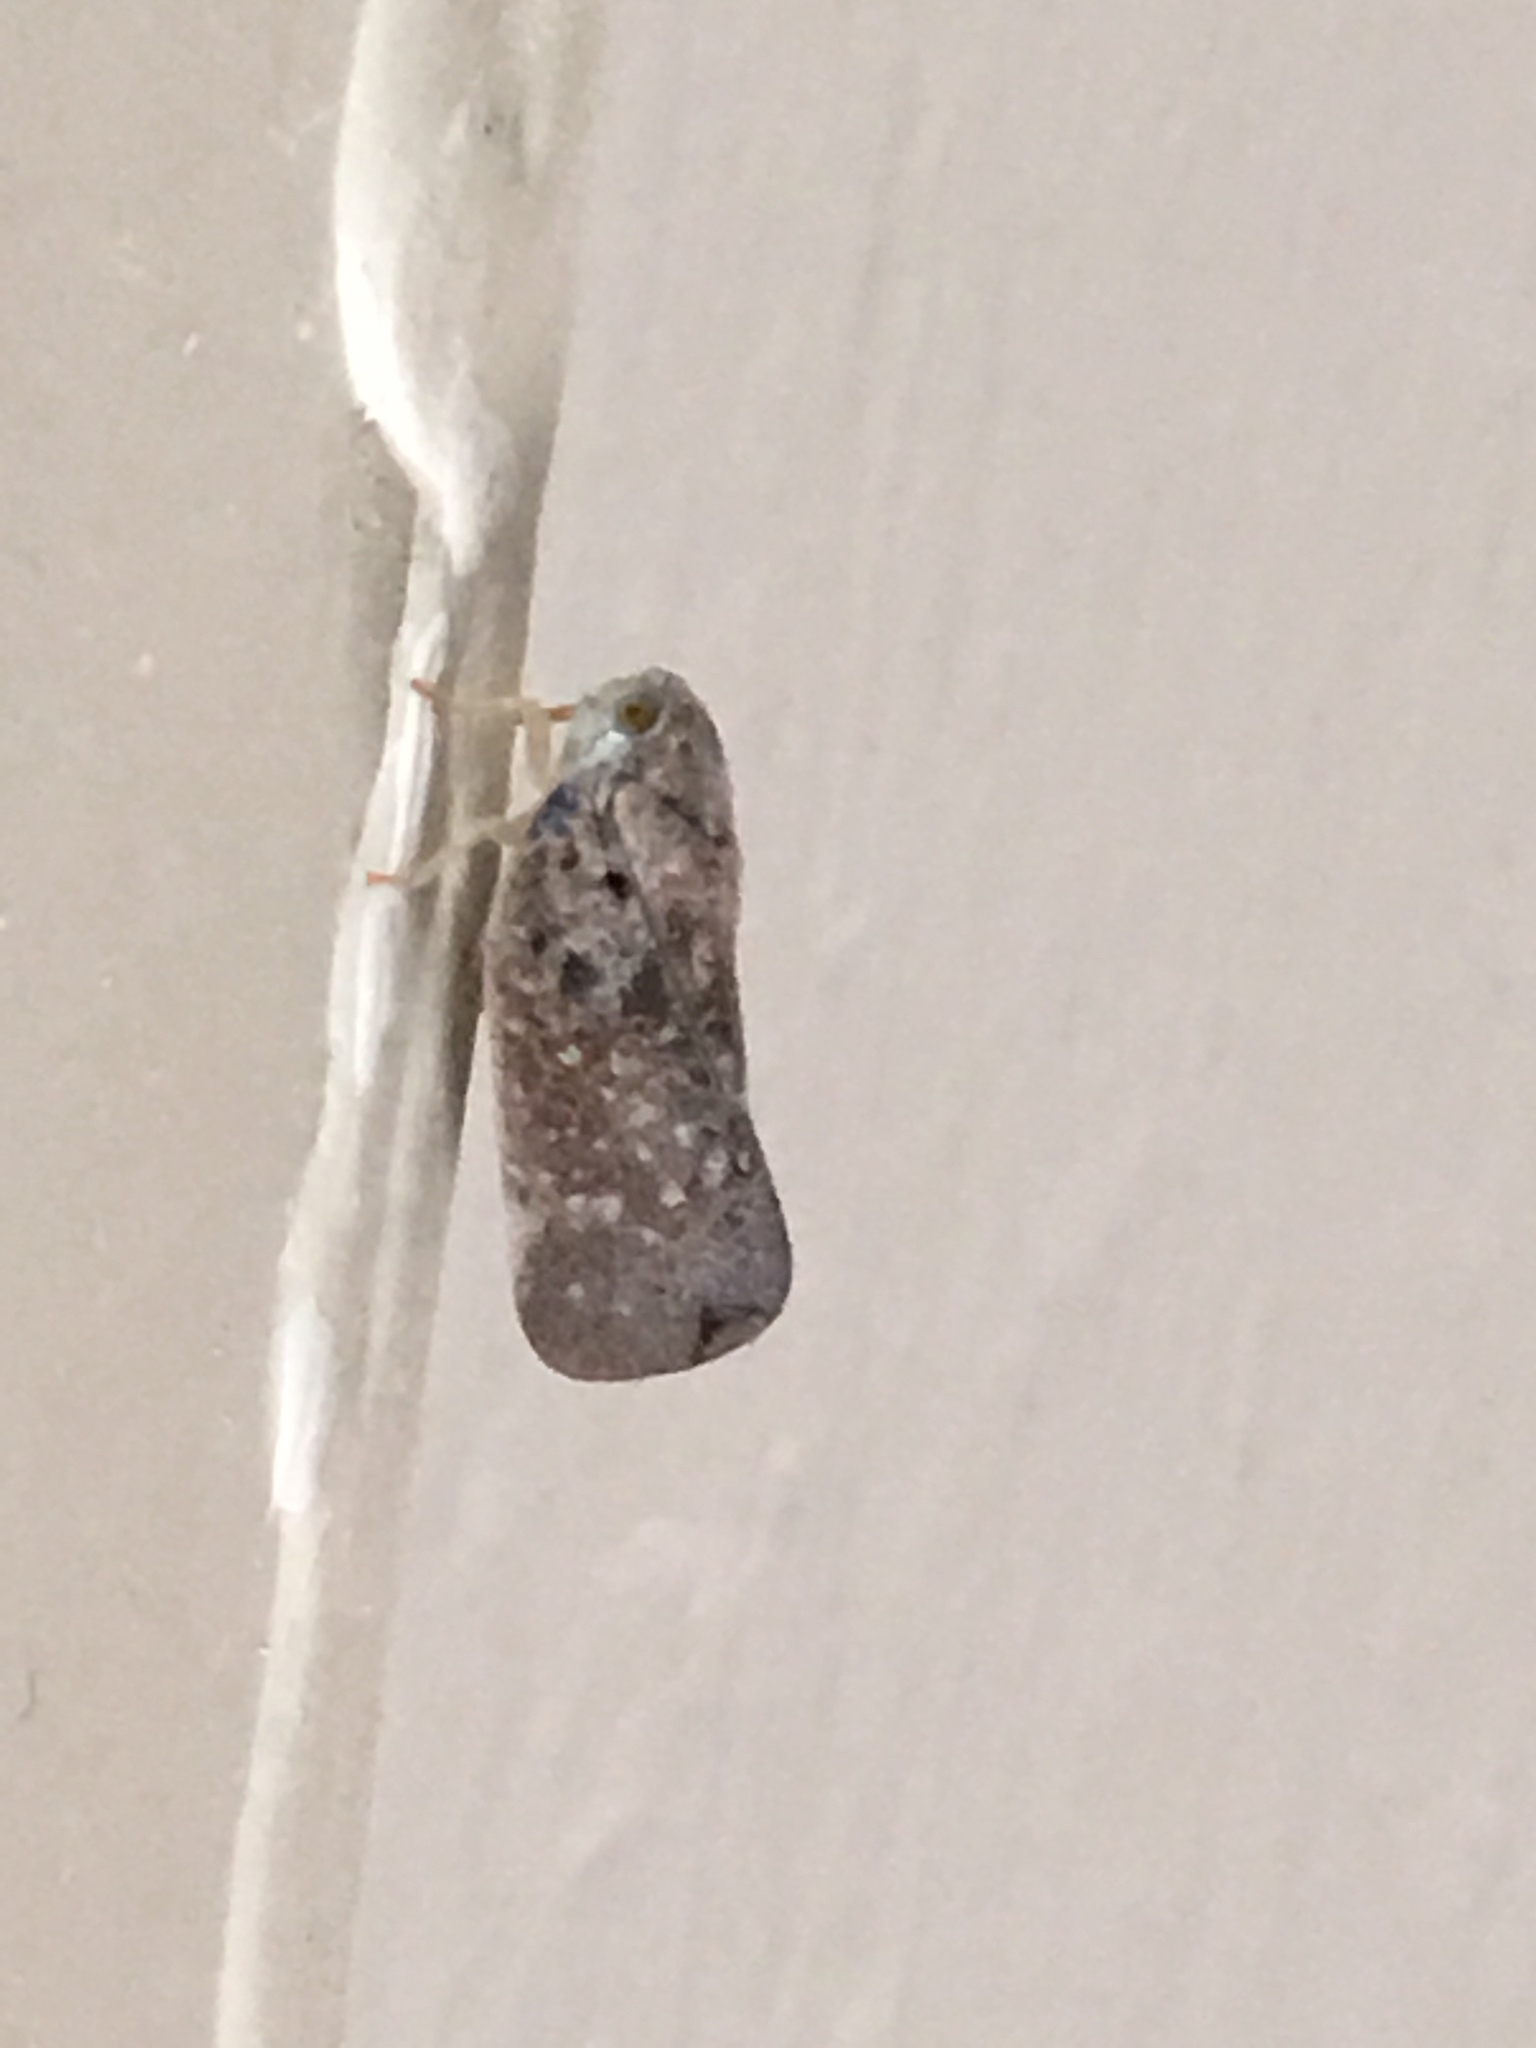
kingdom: Animalia
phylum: Arthropoda
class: Insecta
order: Hemiptera
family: Flatidae
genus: Metcalfa
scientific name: Metcalfa pruinosa
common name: Citrus flatid planthopper
